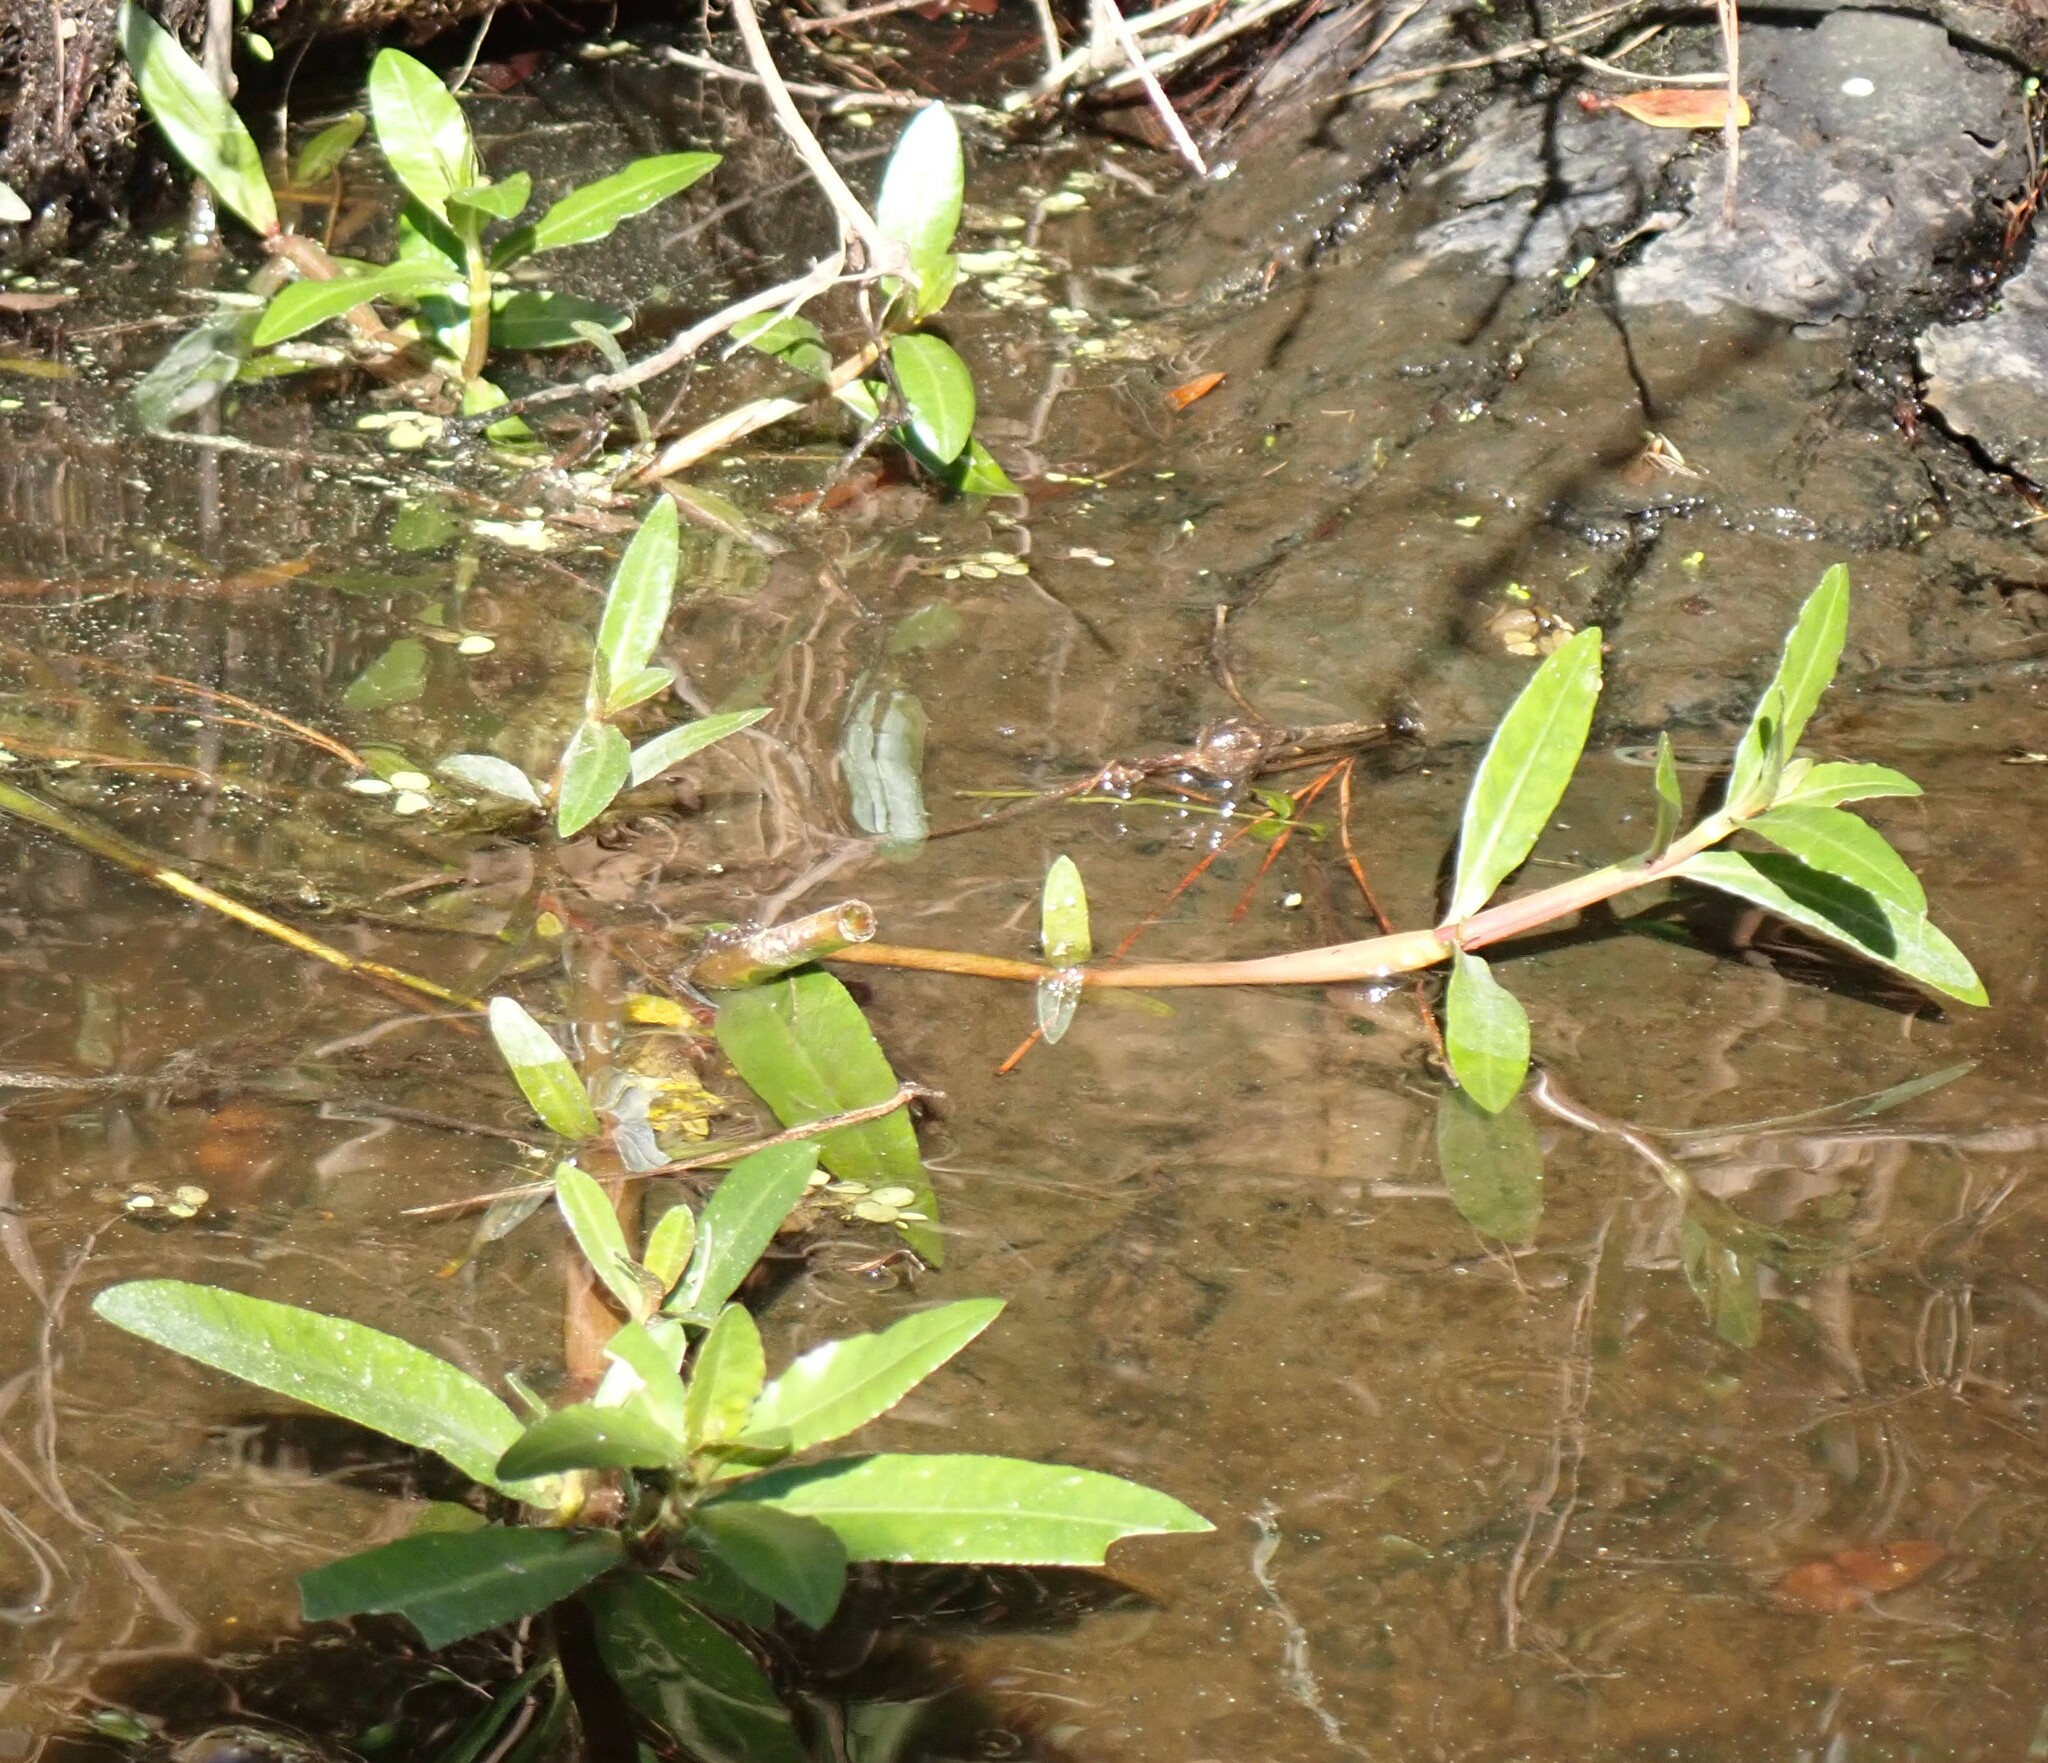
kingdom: Plantae
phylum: Tracheophyta
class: Magnoliopsida
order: Caryophyllales
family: Amaranthaceae
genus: Alternanthera
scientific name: Alternanthera philoxeroides
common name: Alligatorweed
